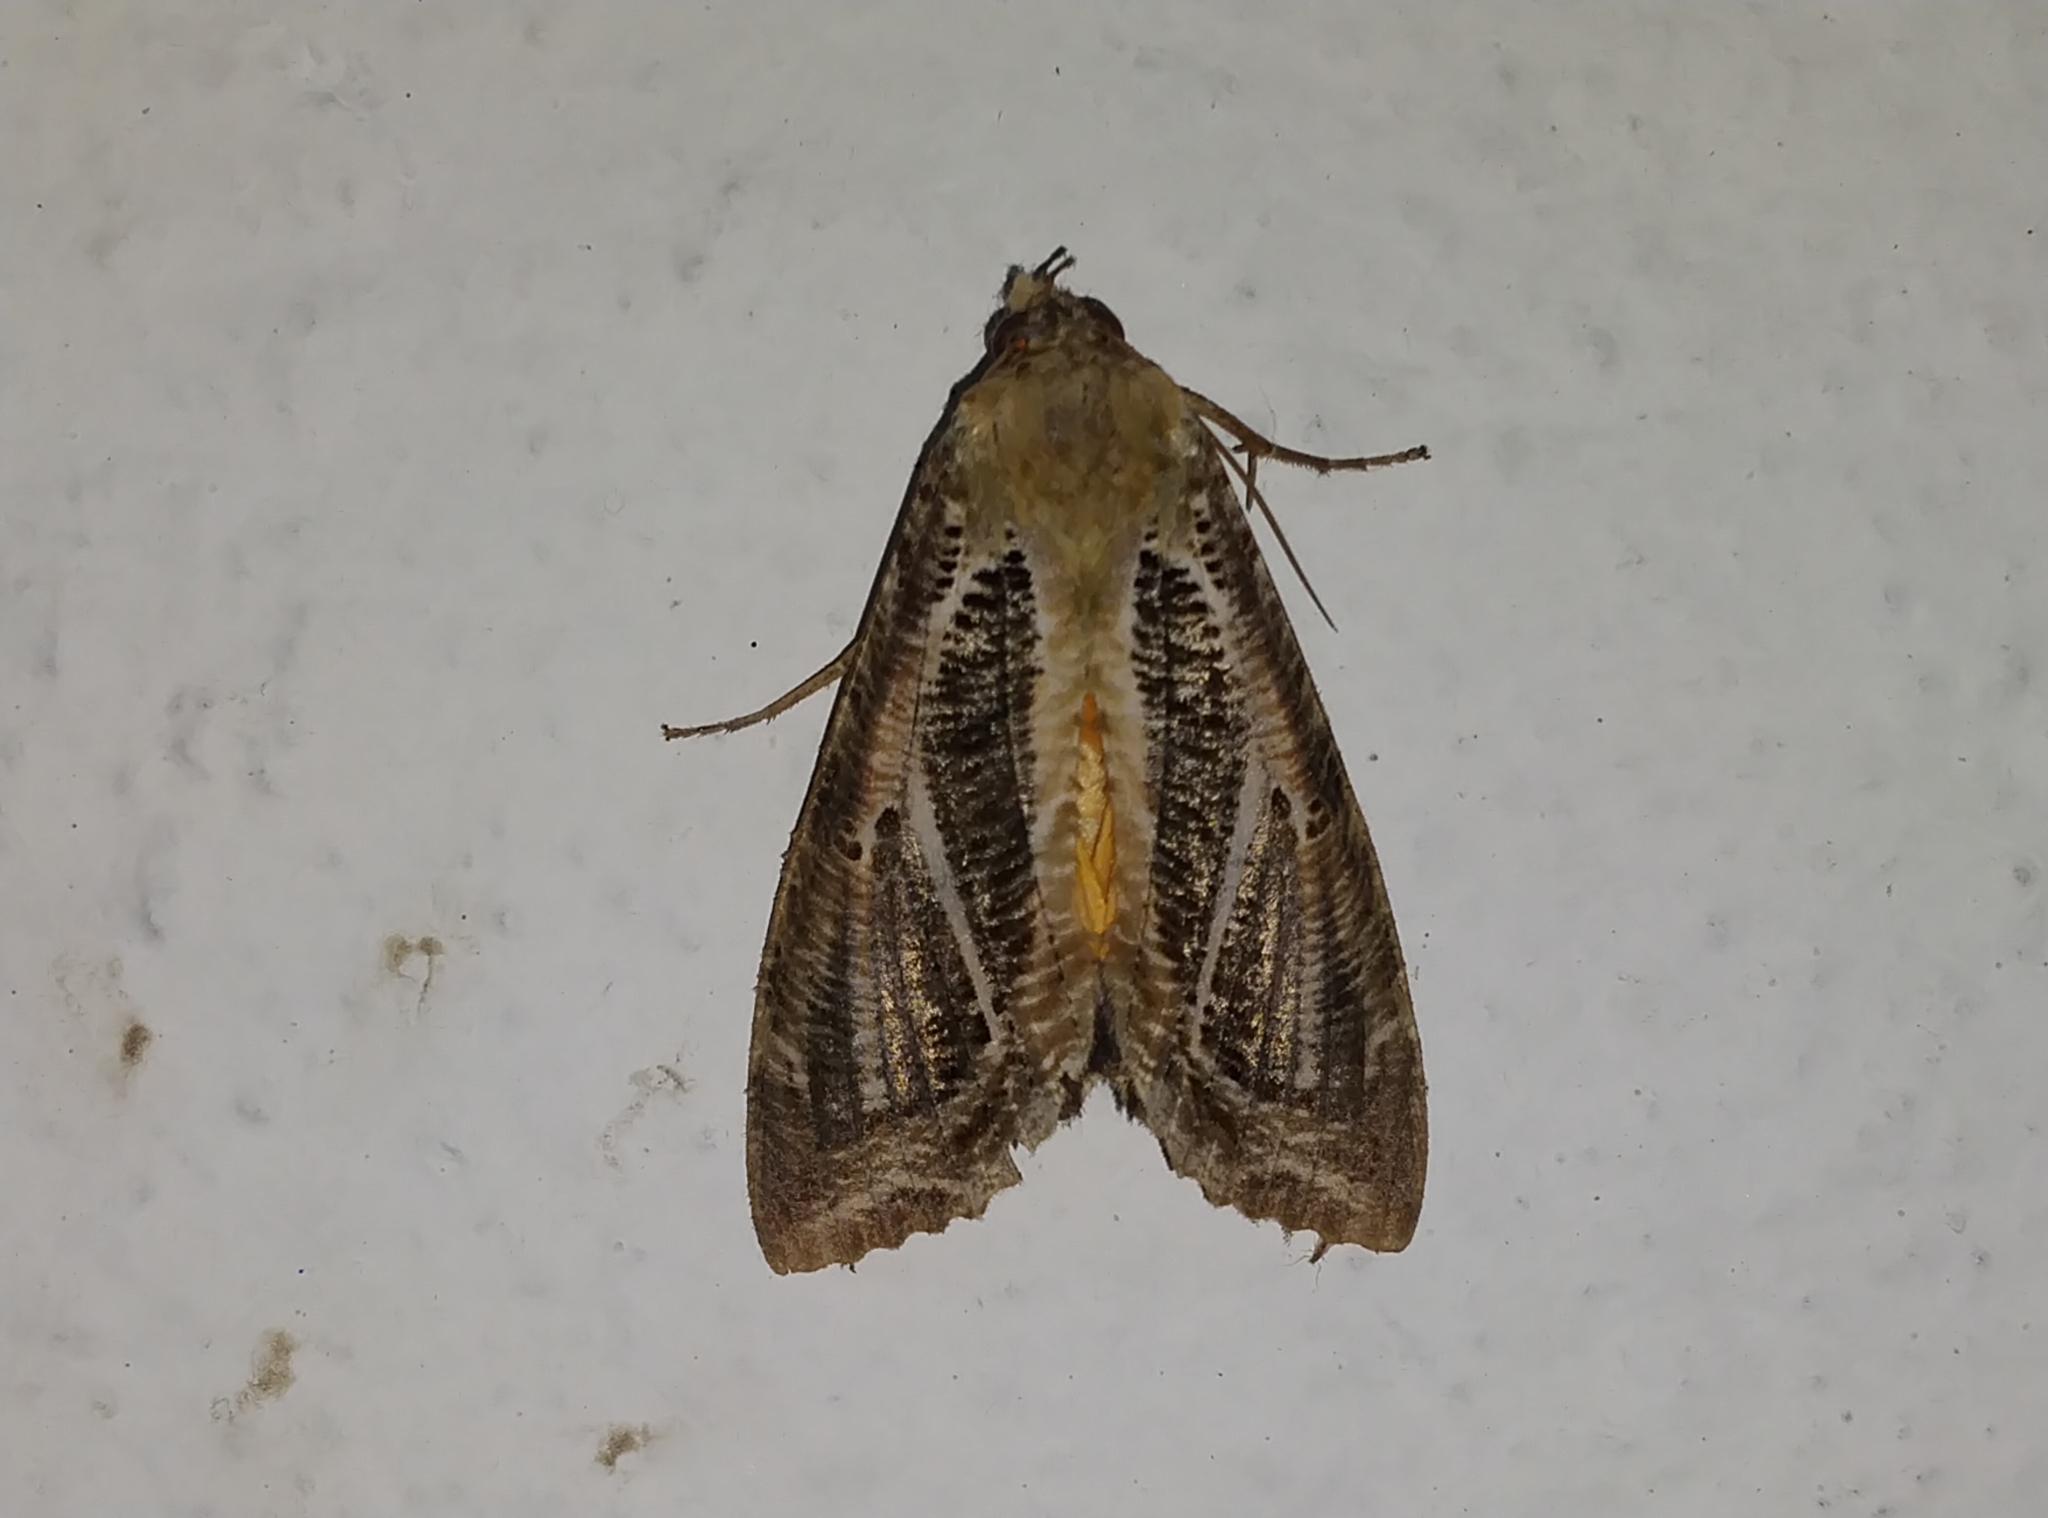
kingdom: Animalia
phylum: Arthropoda
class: Insecta
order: Lepidoptera
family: Erebidae
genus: Eudocima
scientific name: Eudocima materna
